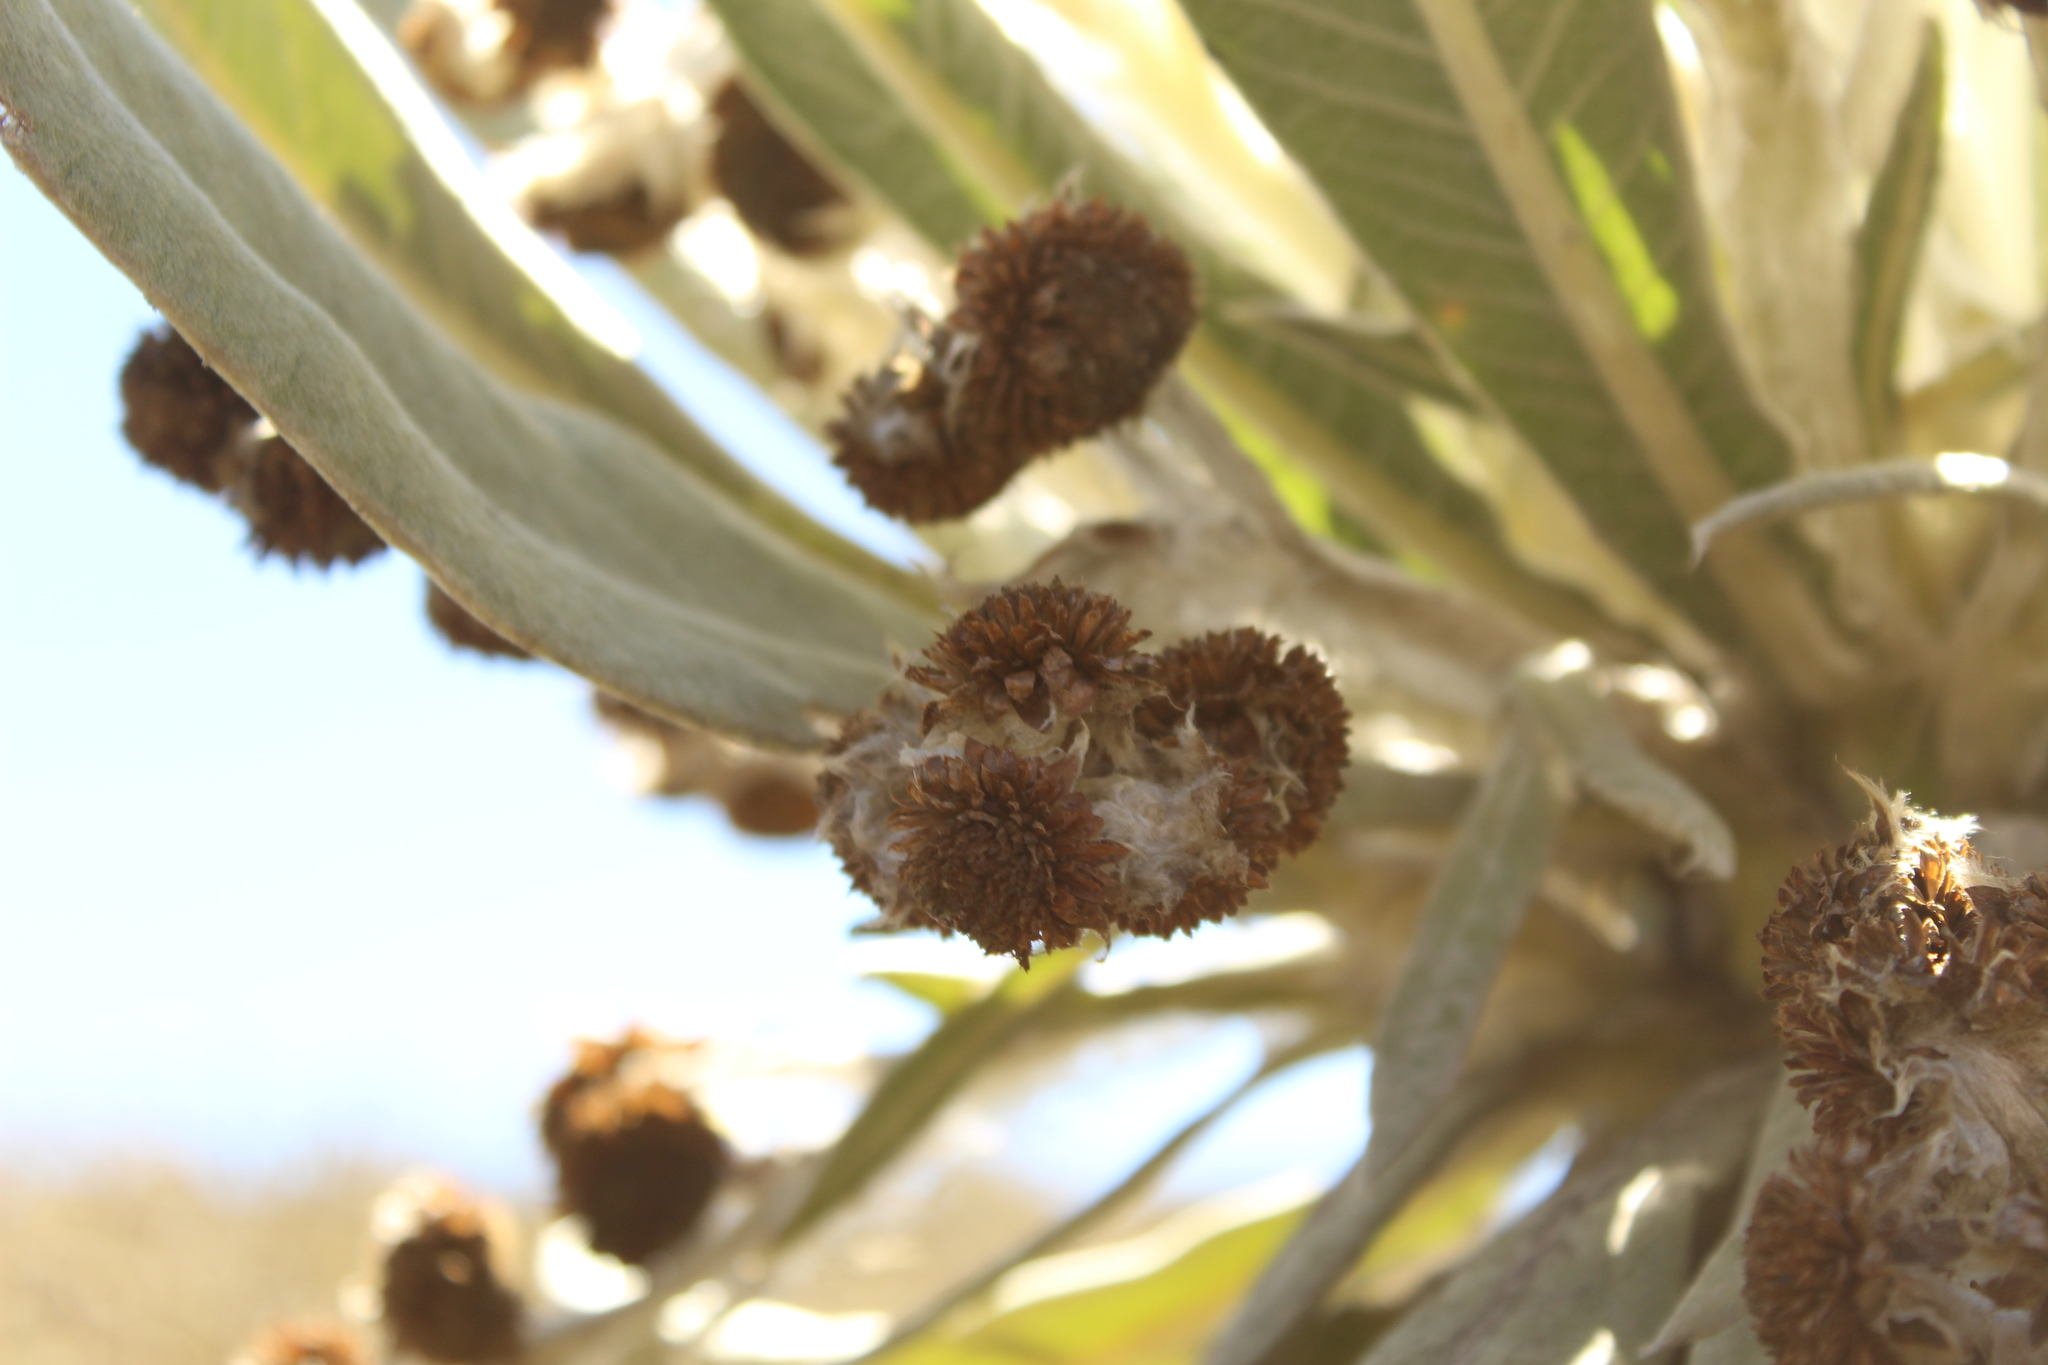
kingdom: Plantae
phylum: Tracheophyta
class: Magnoliopsida
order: Asterales
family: Asteraceae
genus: Espeletia
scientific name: Espeletia brachyaxiantha
